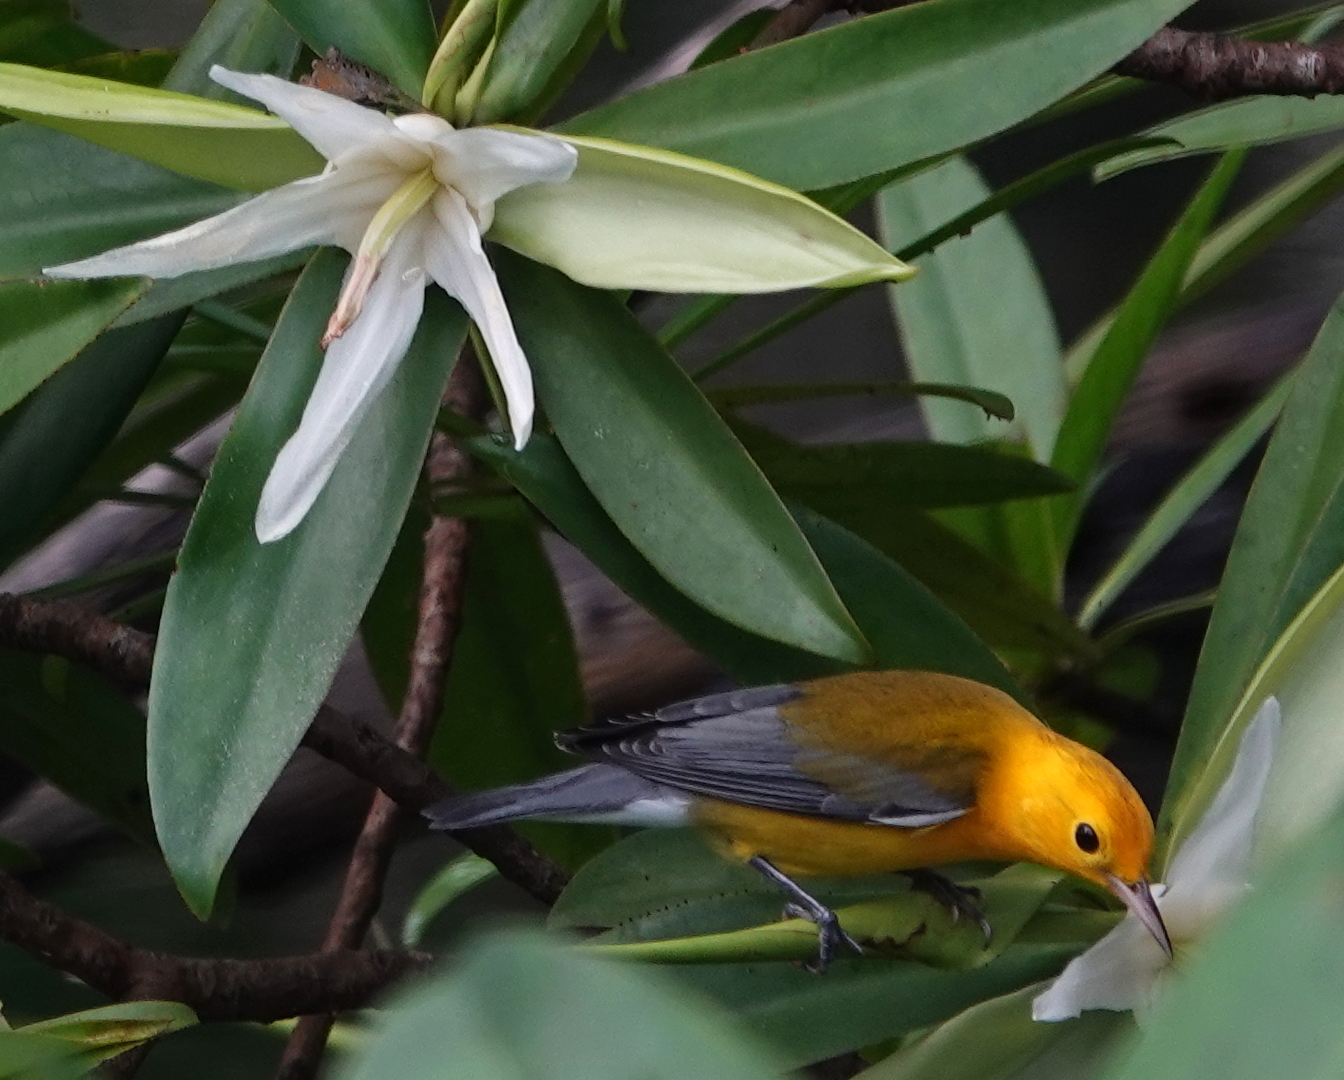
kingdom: Animalia
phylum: Chordata
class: Aves
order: Passeriformes
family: Parulidae
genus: Protonotaria
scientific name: Protonotaria citrea
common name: Prothonotary warbler
